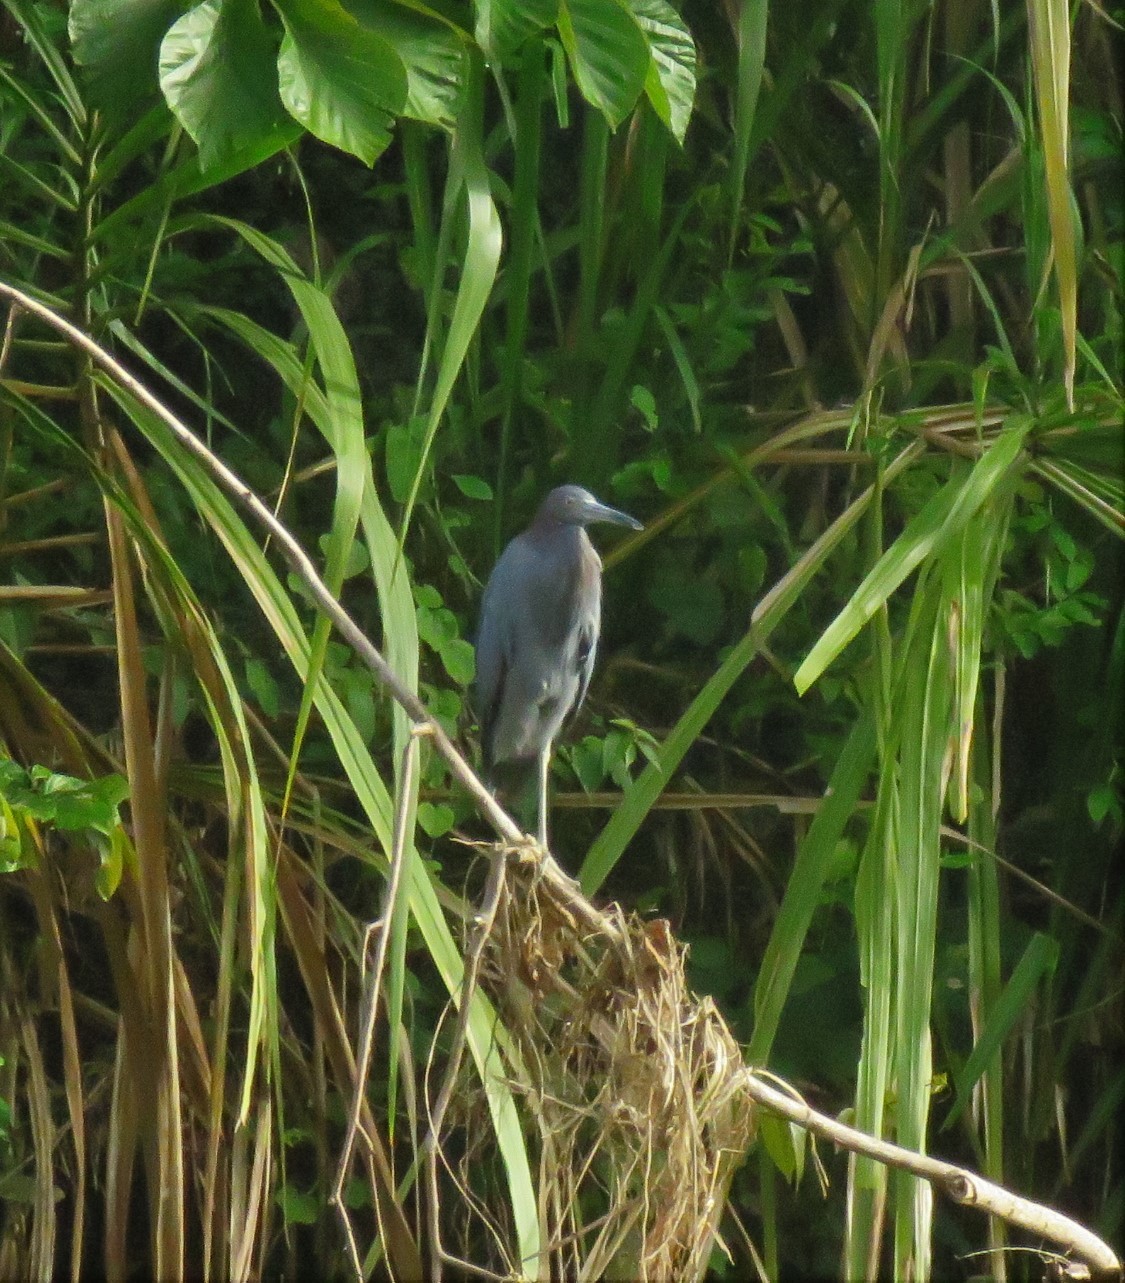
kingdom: Animalia
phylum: Chordata
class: Aves
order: Pelecaniformes
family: Ardeidae
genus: Egretta
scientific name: Egretta caerulea
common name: Little blue heron
